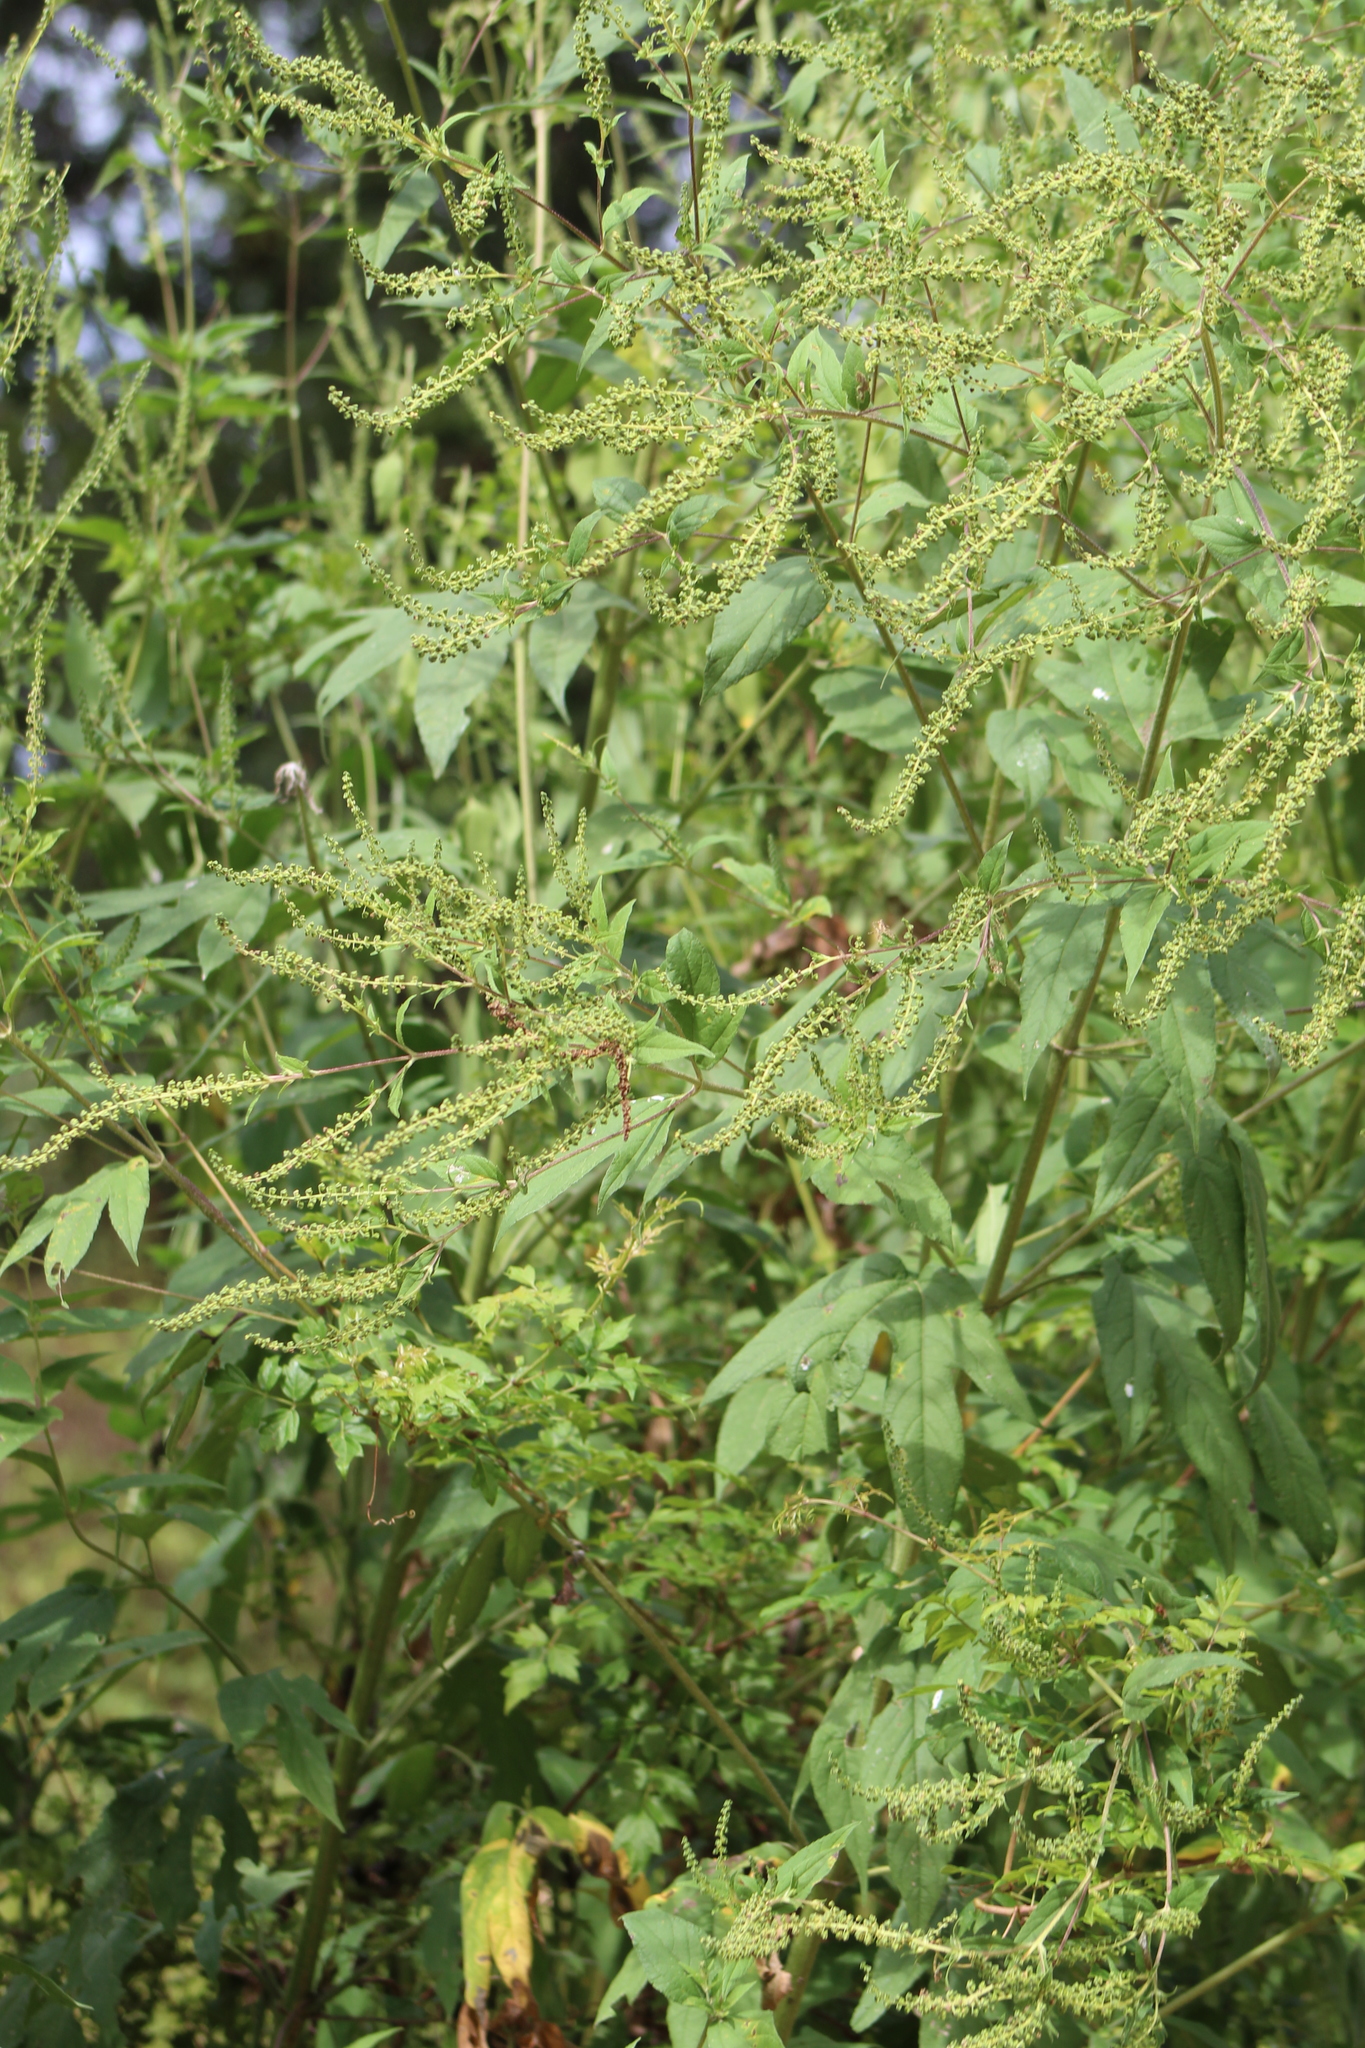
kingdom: Plantae
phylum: Tracheophyta
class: Magnoliopsida
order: Asterales
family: Asteraceae
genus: Ambrosia
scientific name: Ambrosia trifida
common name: Giant ragweed
